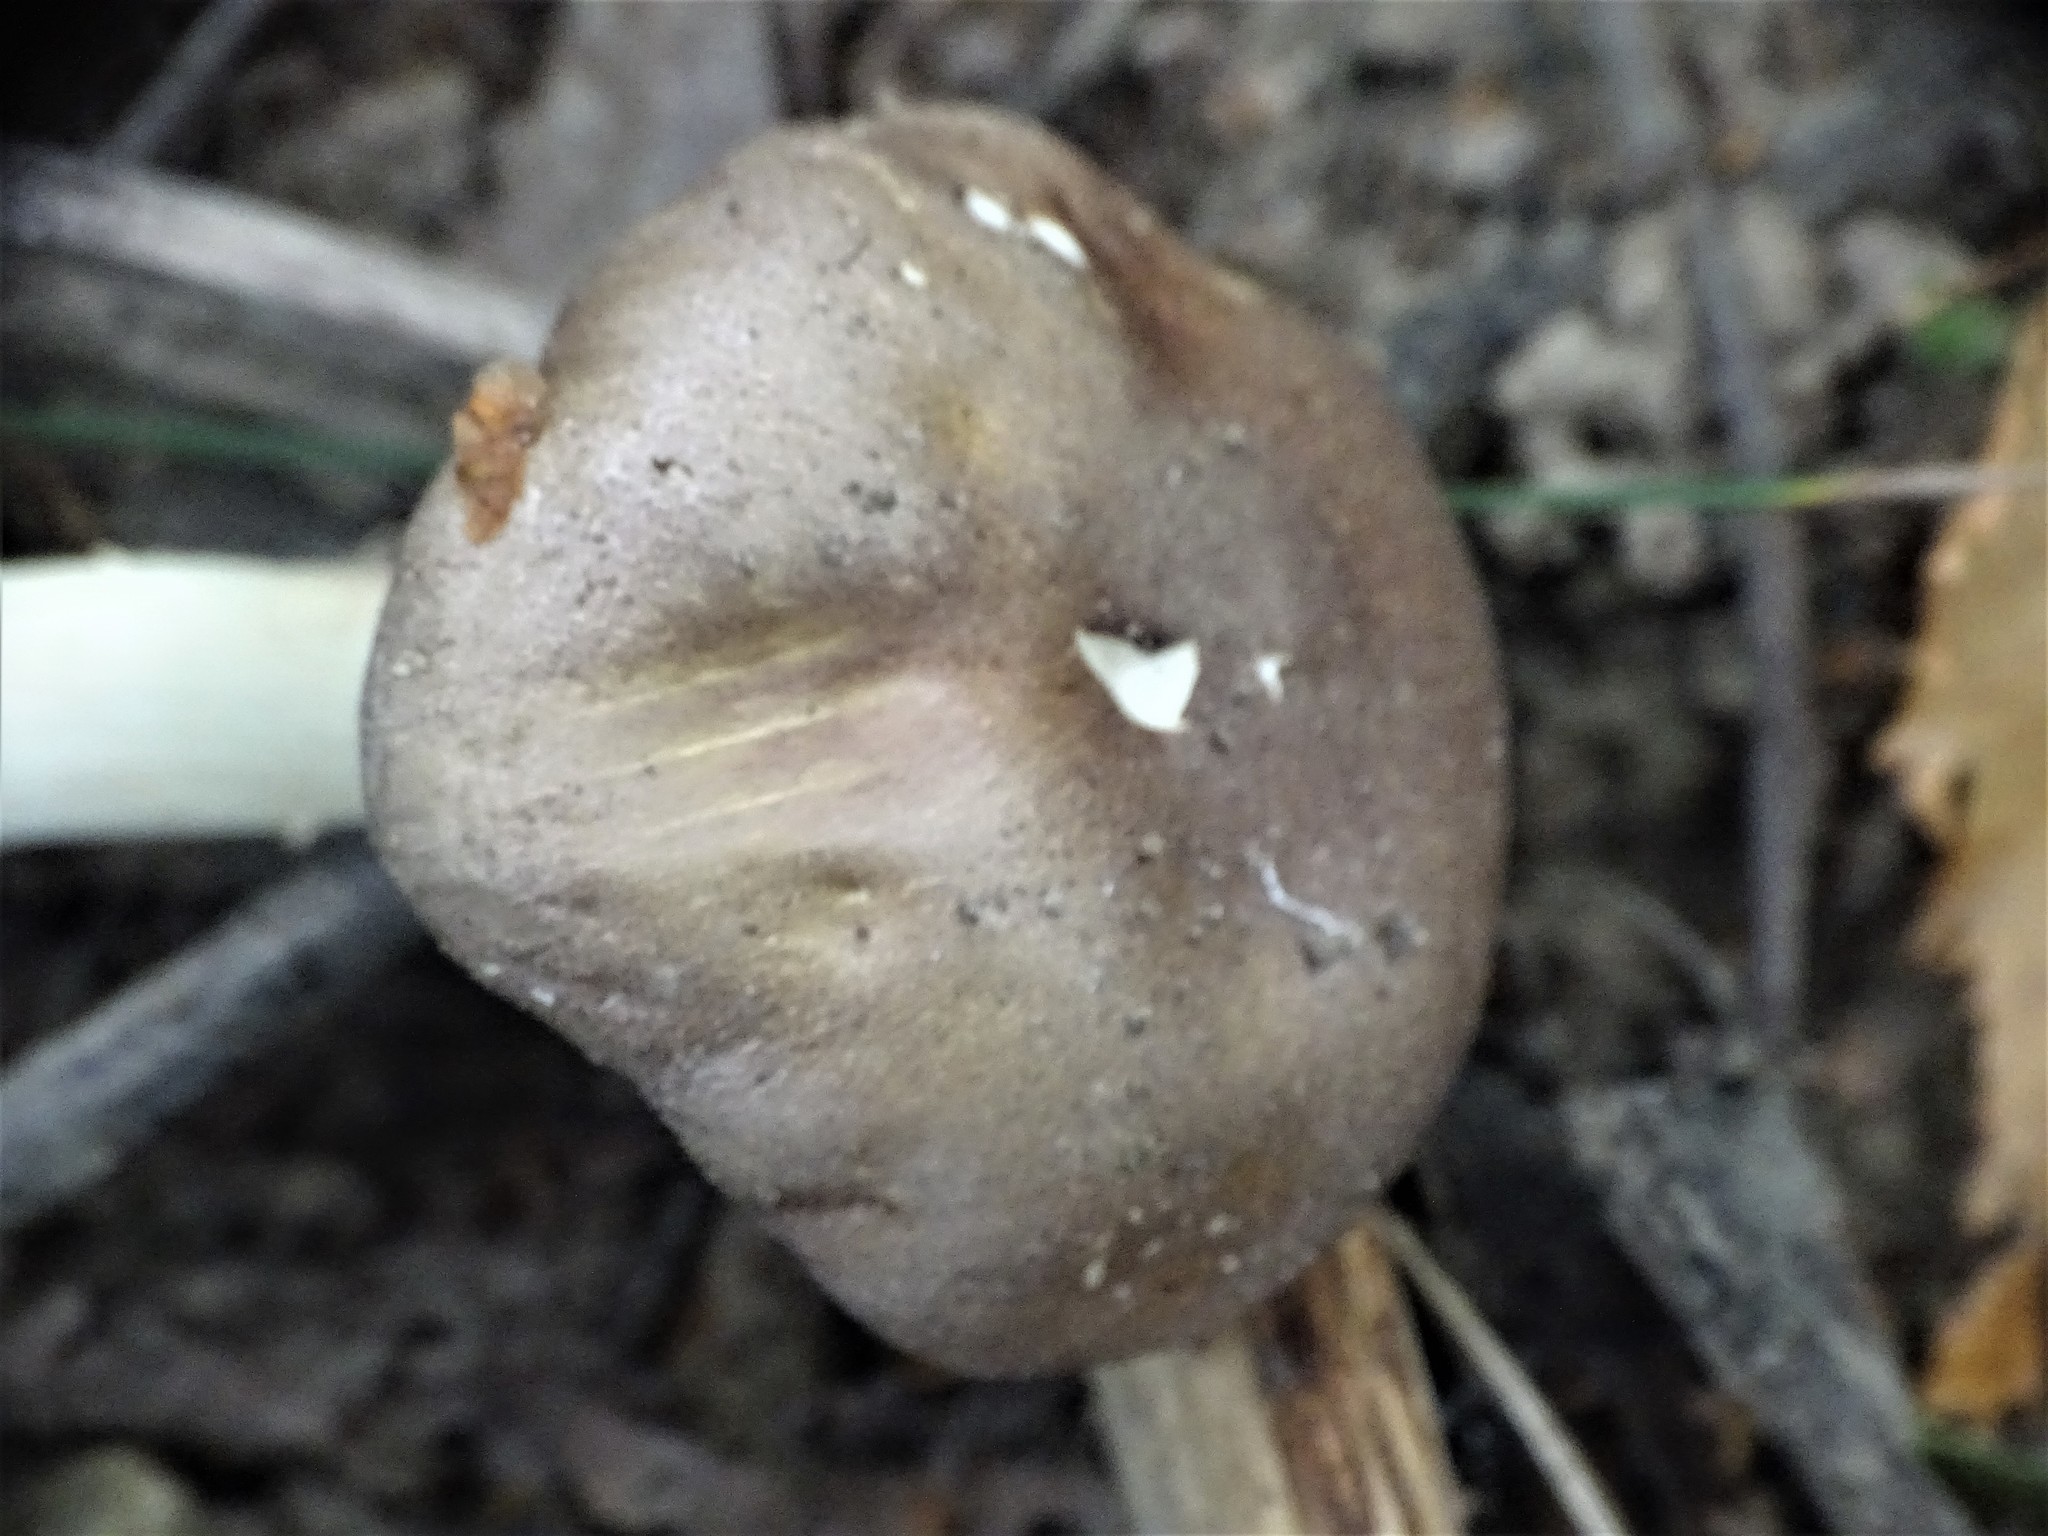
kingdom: Fungi
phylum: Basidiomycota
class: Agaricomycetes
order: Agaricales
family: Strophariaceae
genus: Stropharia
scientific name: Stropharia rugosoannulata
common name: Wine roundhead
